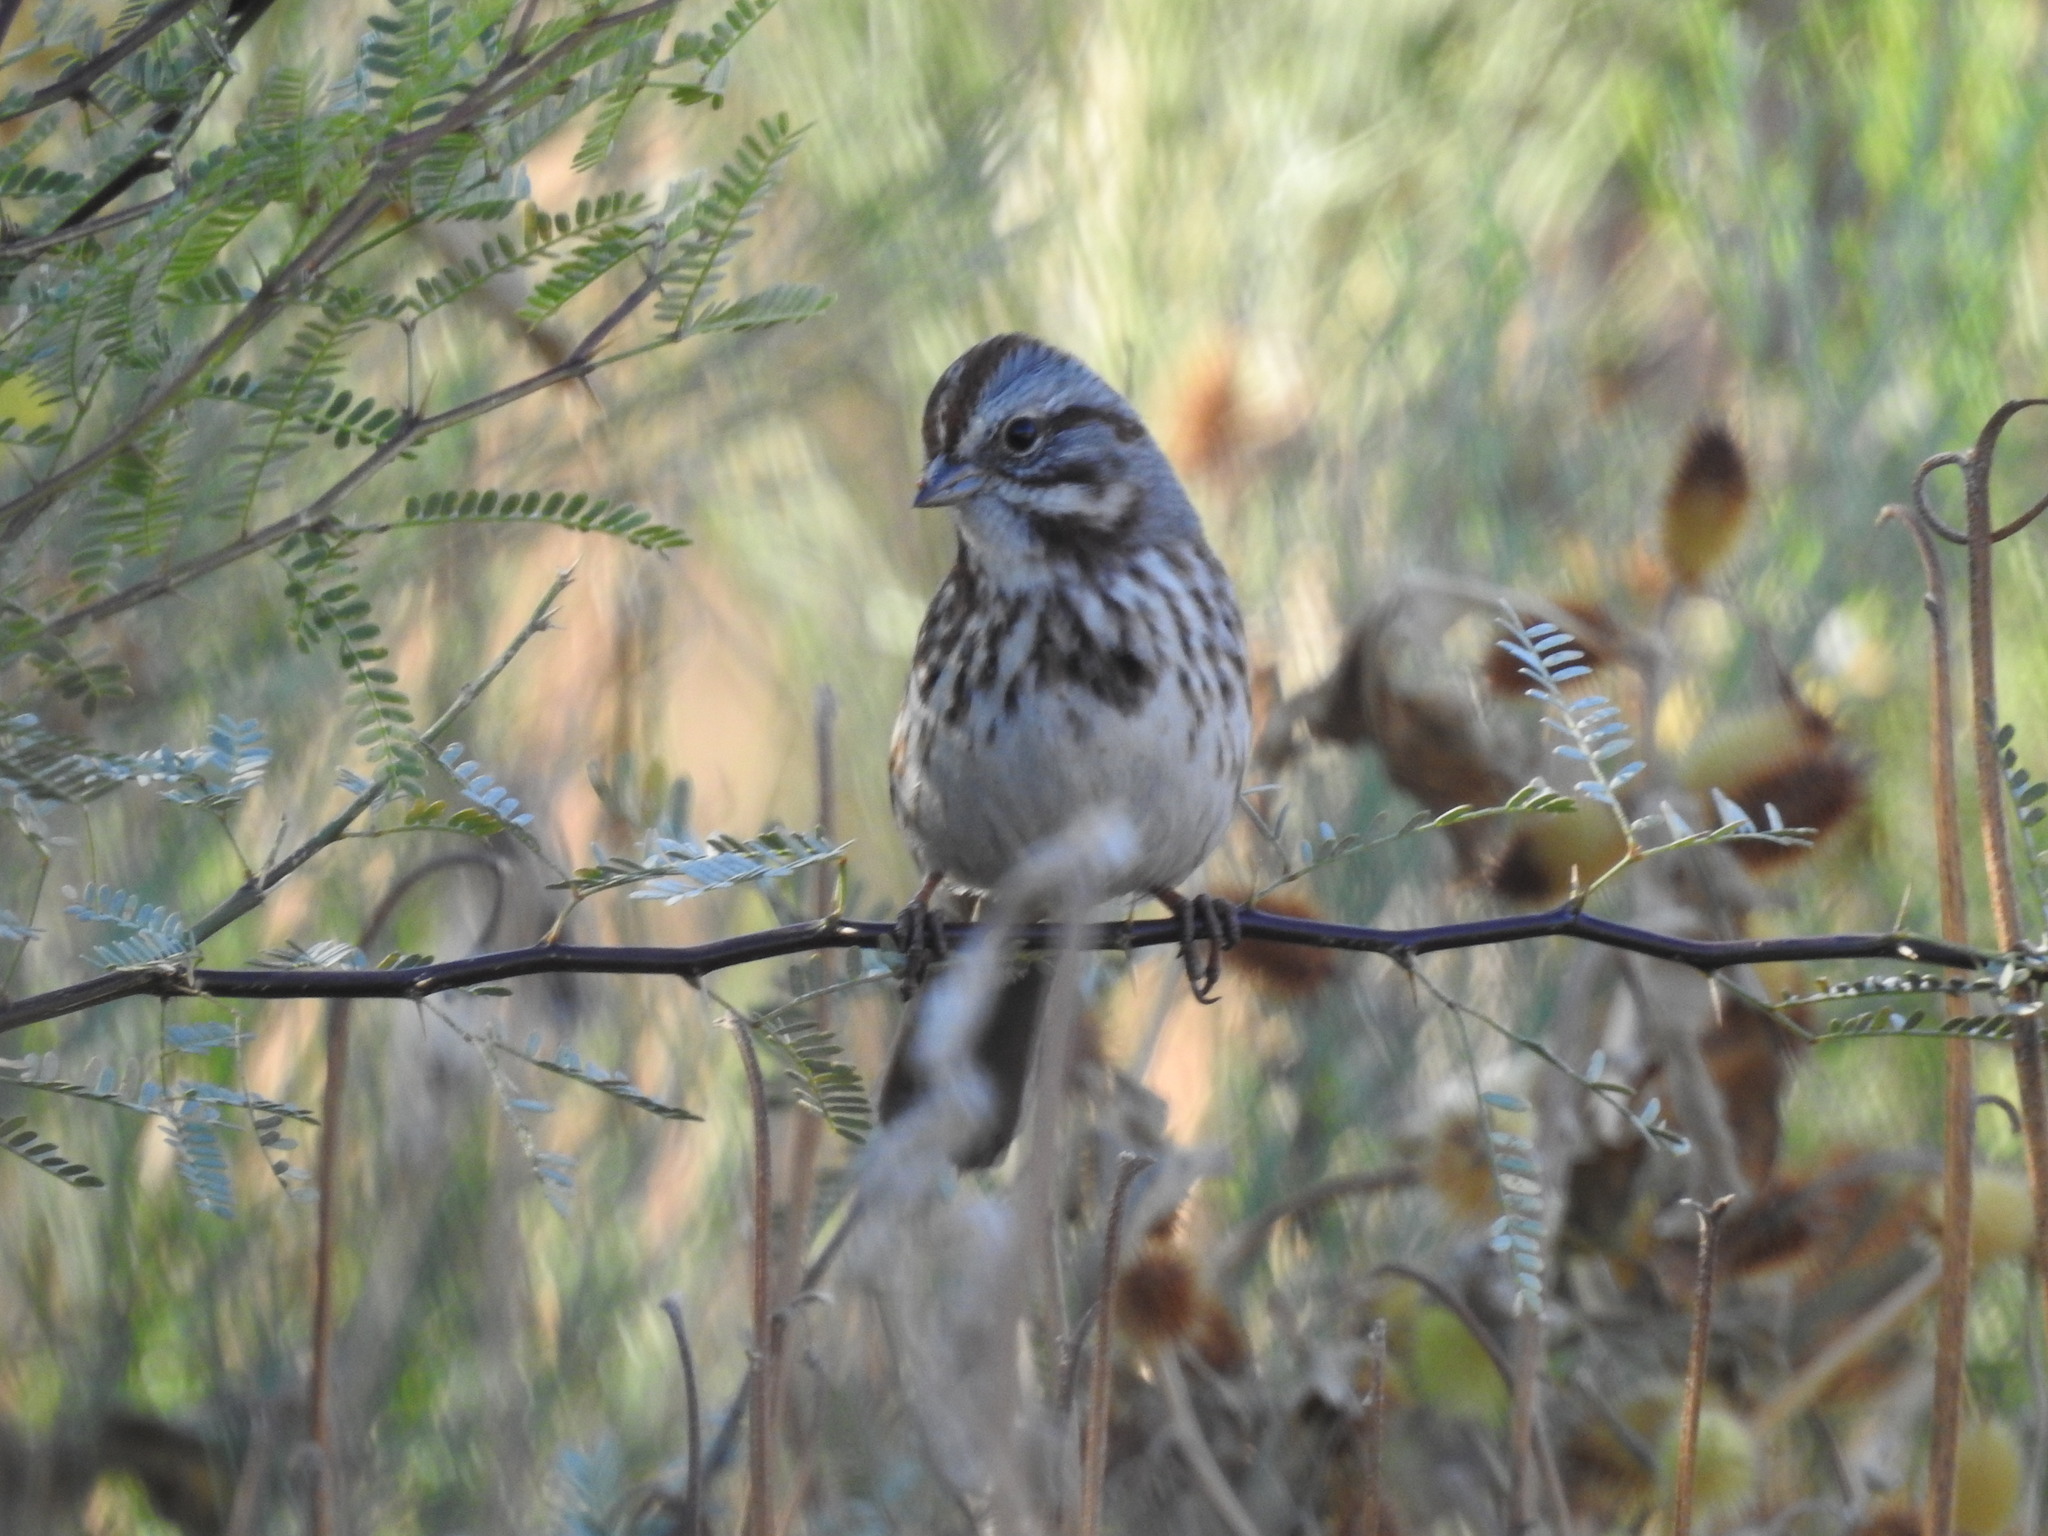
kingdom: Animalia
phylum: Chordata
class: Aves
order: Passeriformes
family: Passerellidae
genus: Melospiza
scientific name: Melospiza melodia
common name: Song sparrow
